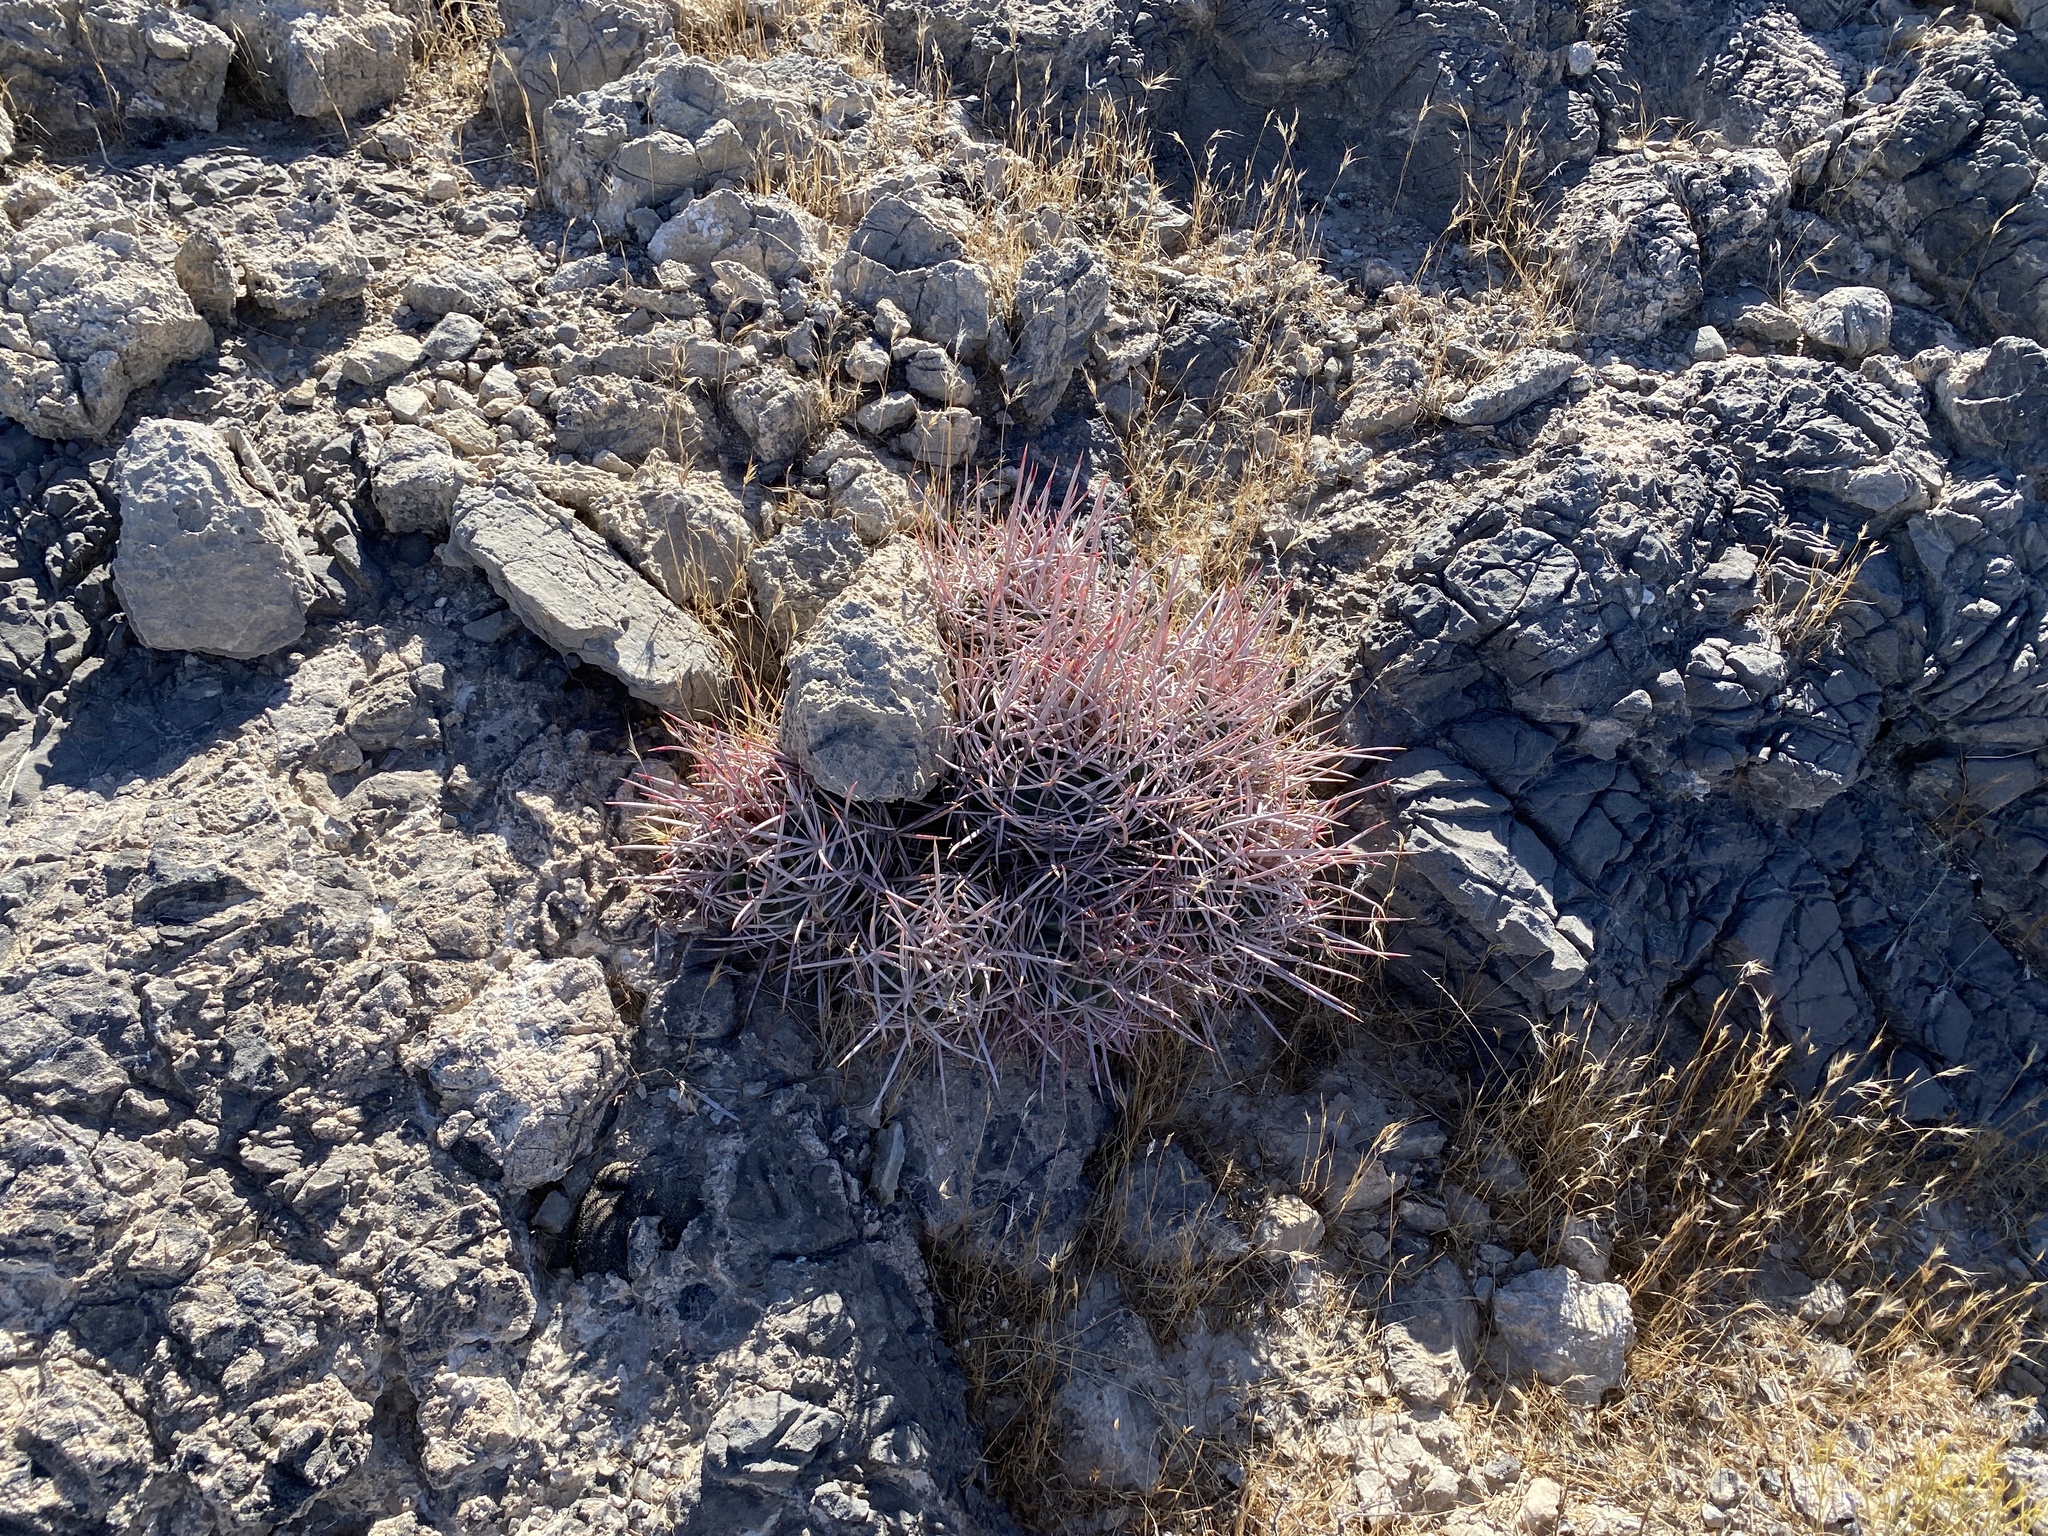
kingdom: Plantae
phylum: Tracheophyta
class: Magnoliopsida
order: Caryophyllales
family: Cactaceae
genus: Echinocactus
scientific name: Echinocactus polycephalus
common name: Cottontop cactus
